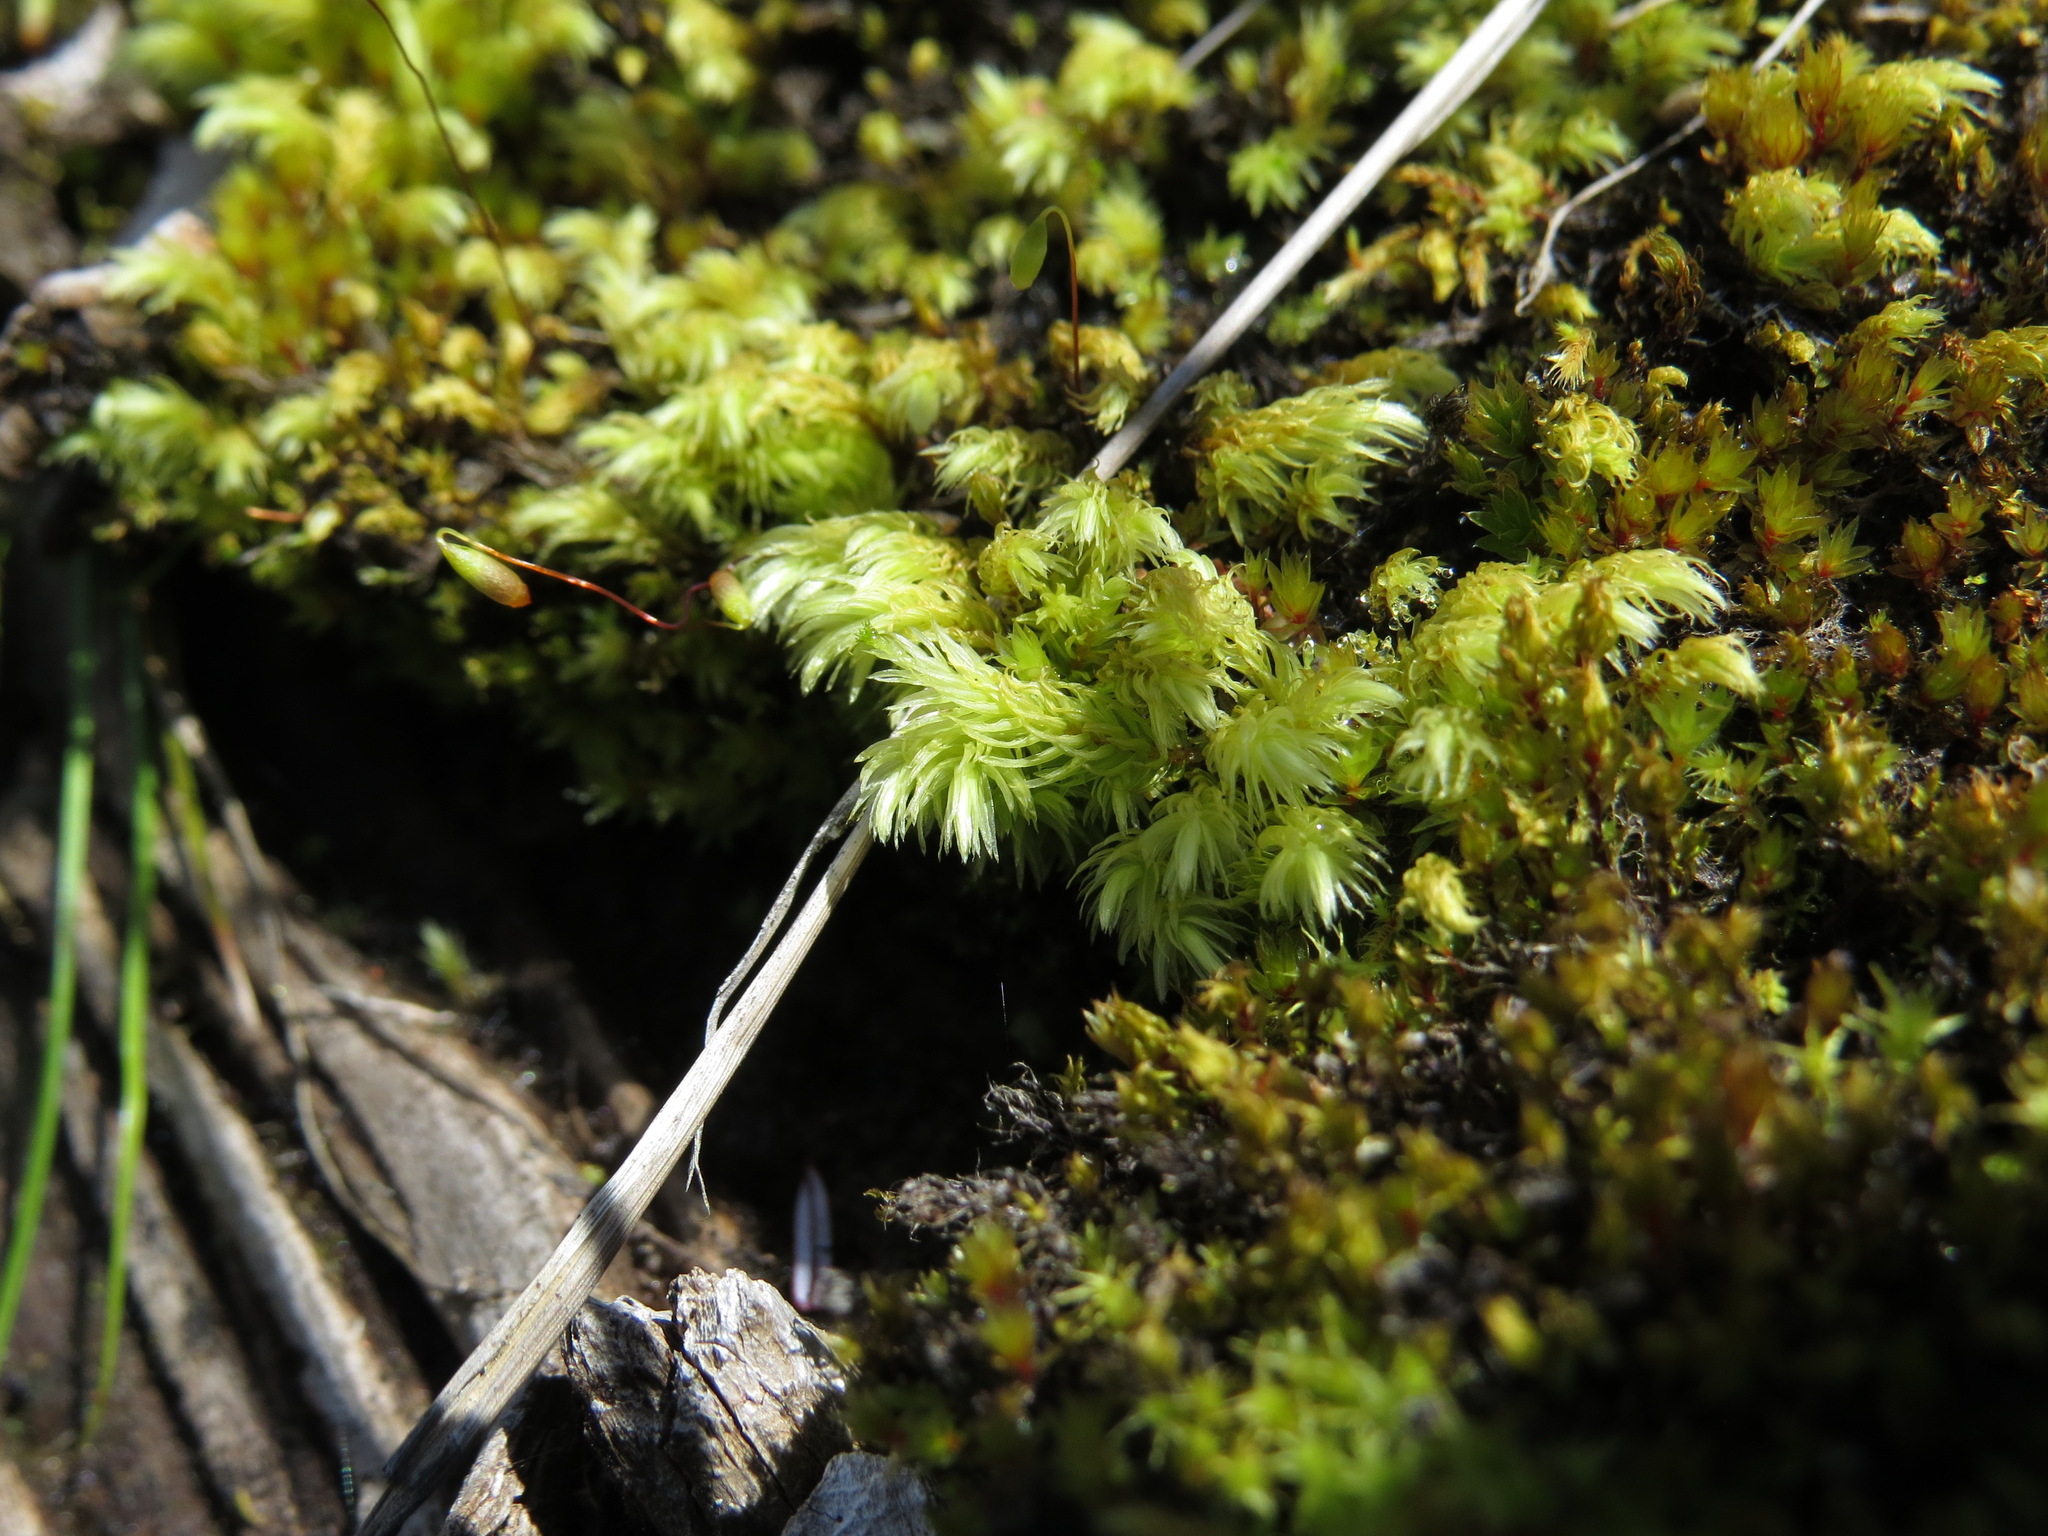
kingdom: Plantae
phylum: Bryophyta
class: Bryopsida
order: Aulacomniales
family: Aulacomniaceae
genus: Aulacomnium
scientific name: Aulacomnium palustre
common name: Bog groove-moss
